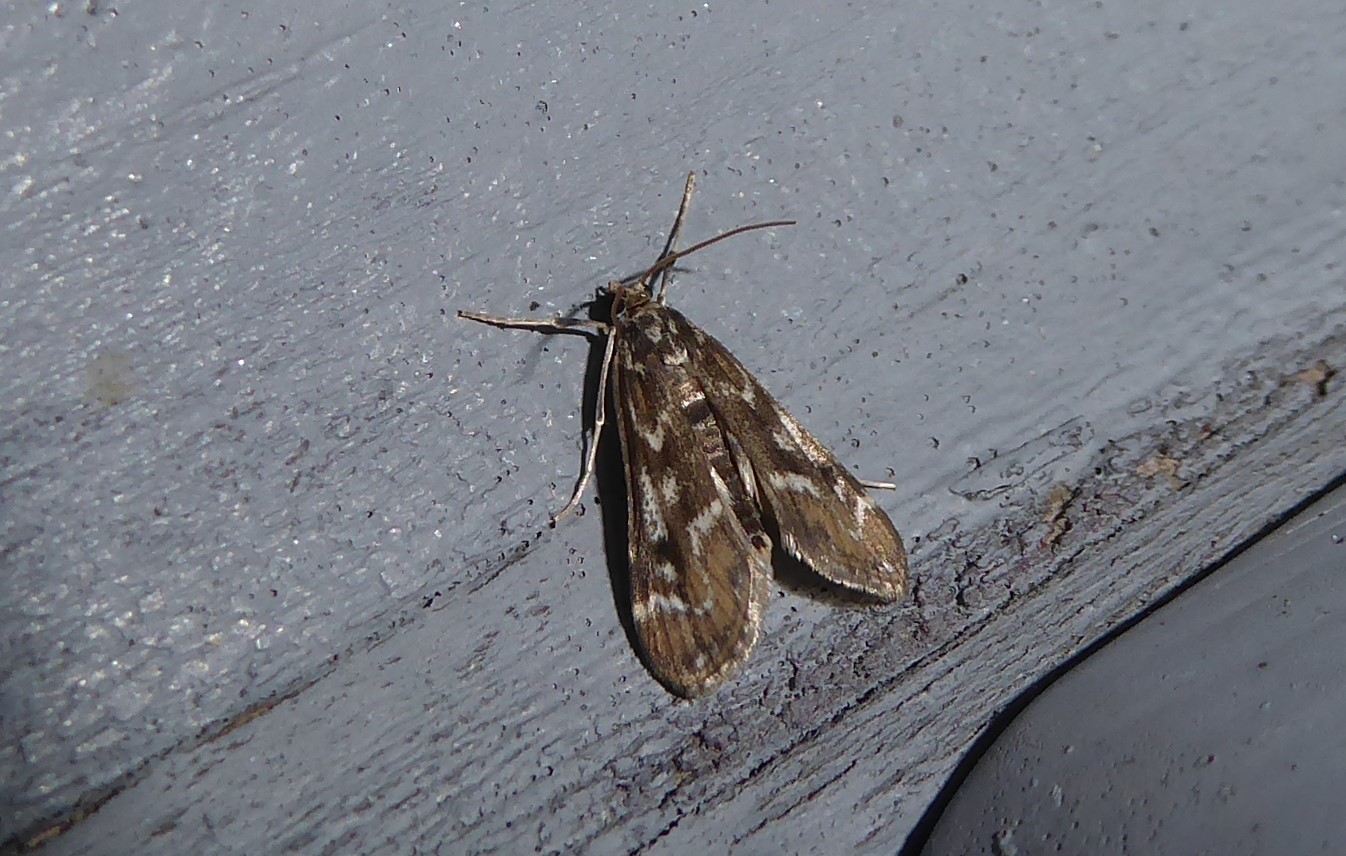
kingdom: Animalia
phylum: Arthropoda
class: Insecta
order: Lepidoptera
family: Crambidae
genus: Hygraula
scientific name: Hygraula nitens
